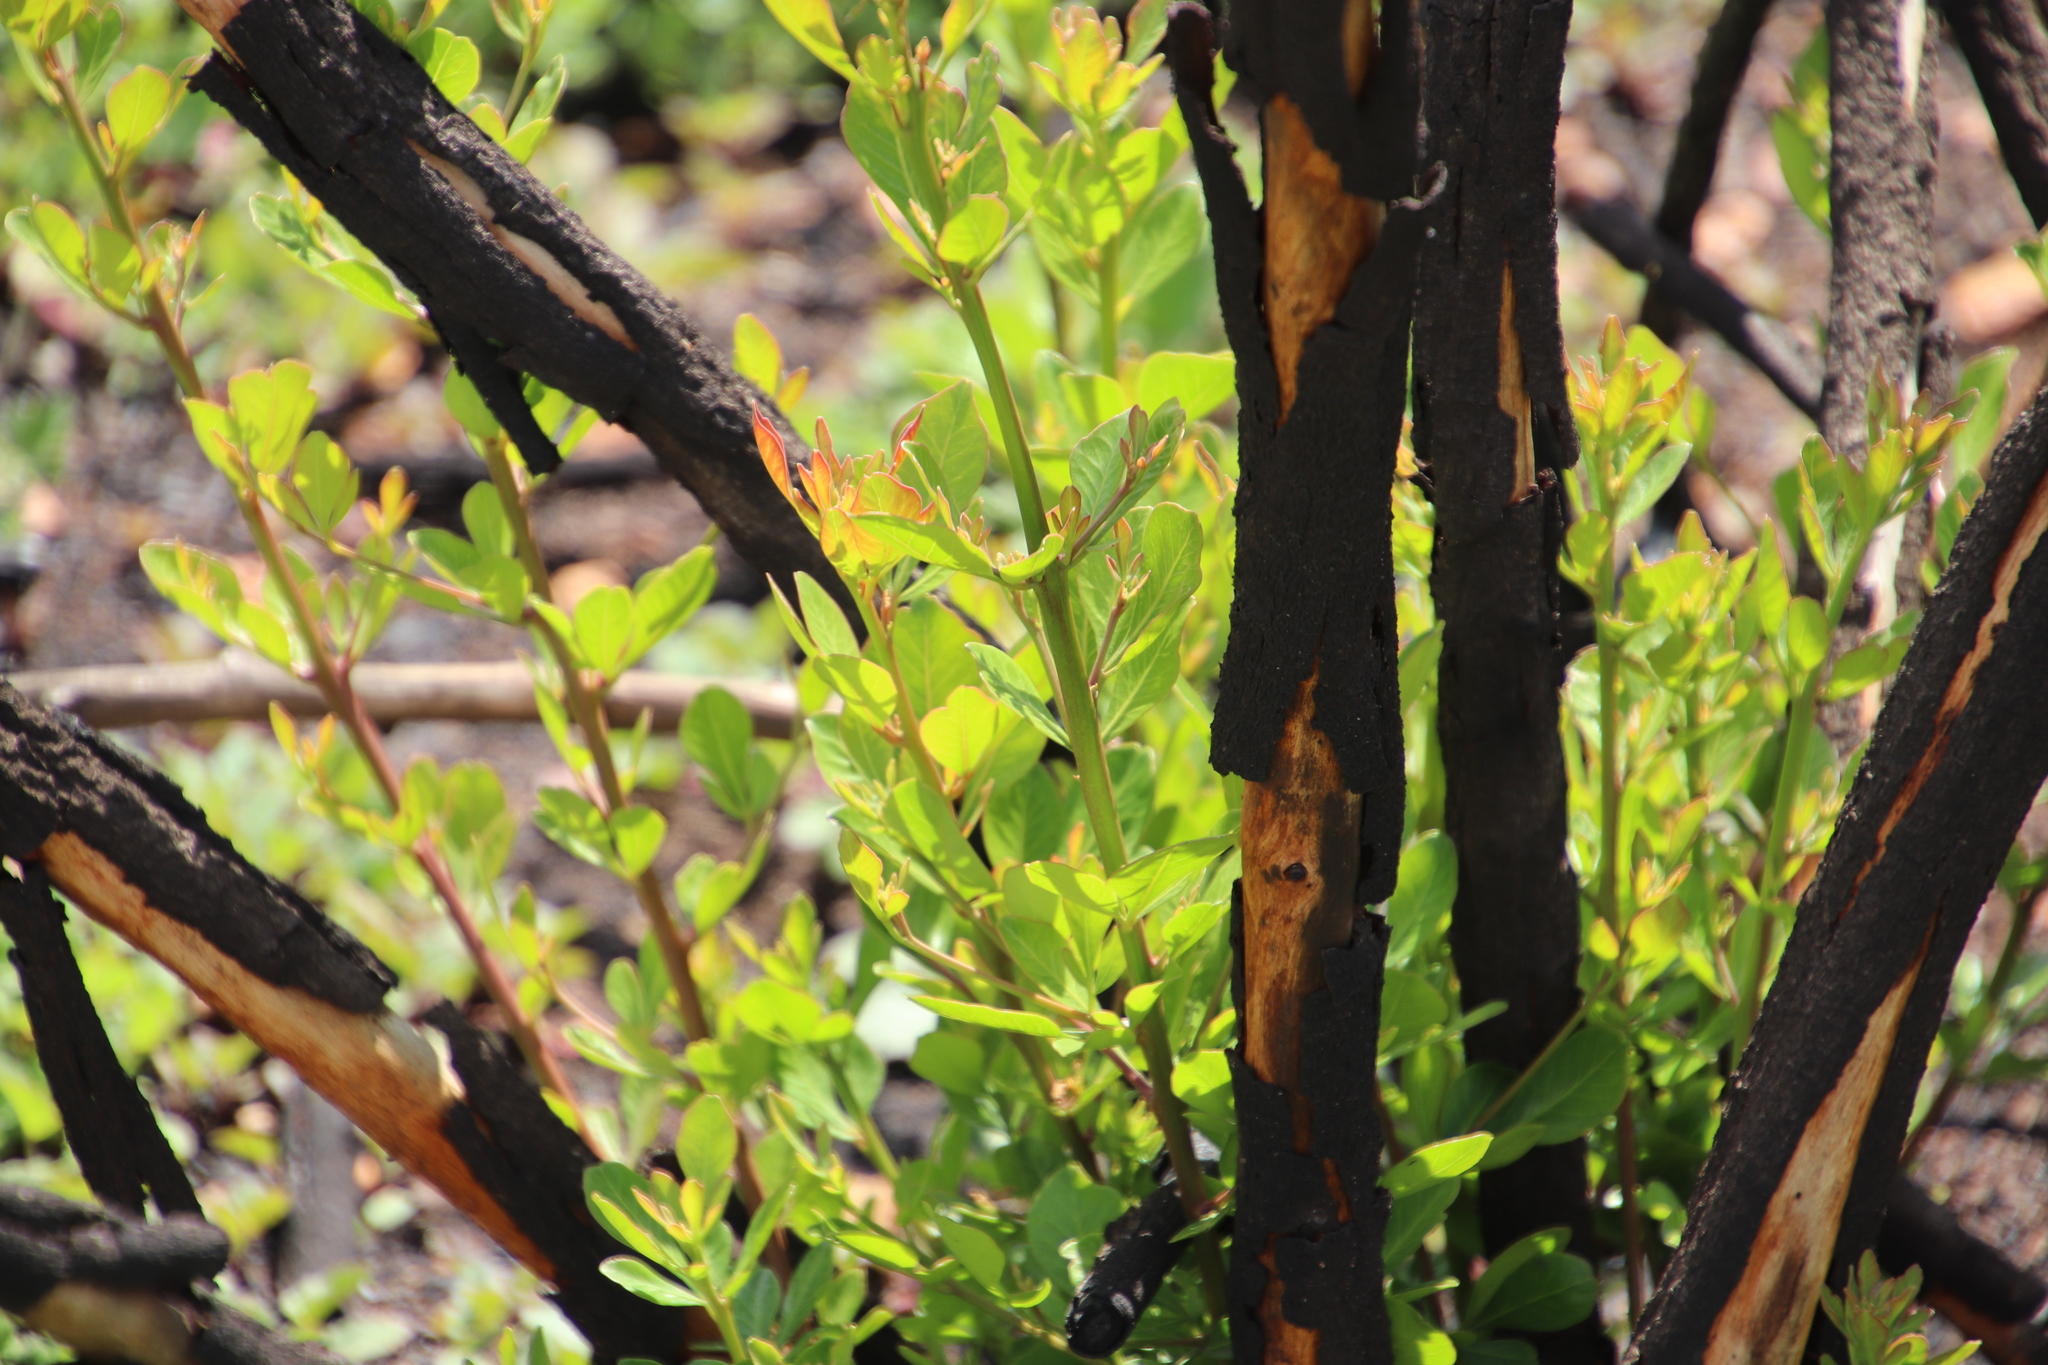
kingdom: Plantae
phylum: Tracheophyta
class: Magnoliopsida
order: Sapindales
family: Anacardiaceae
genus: Searsia
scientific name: Searsia lucida
